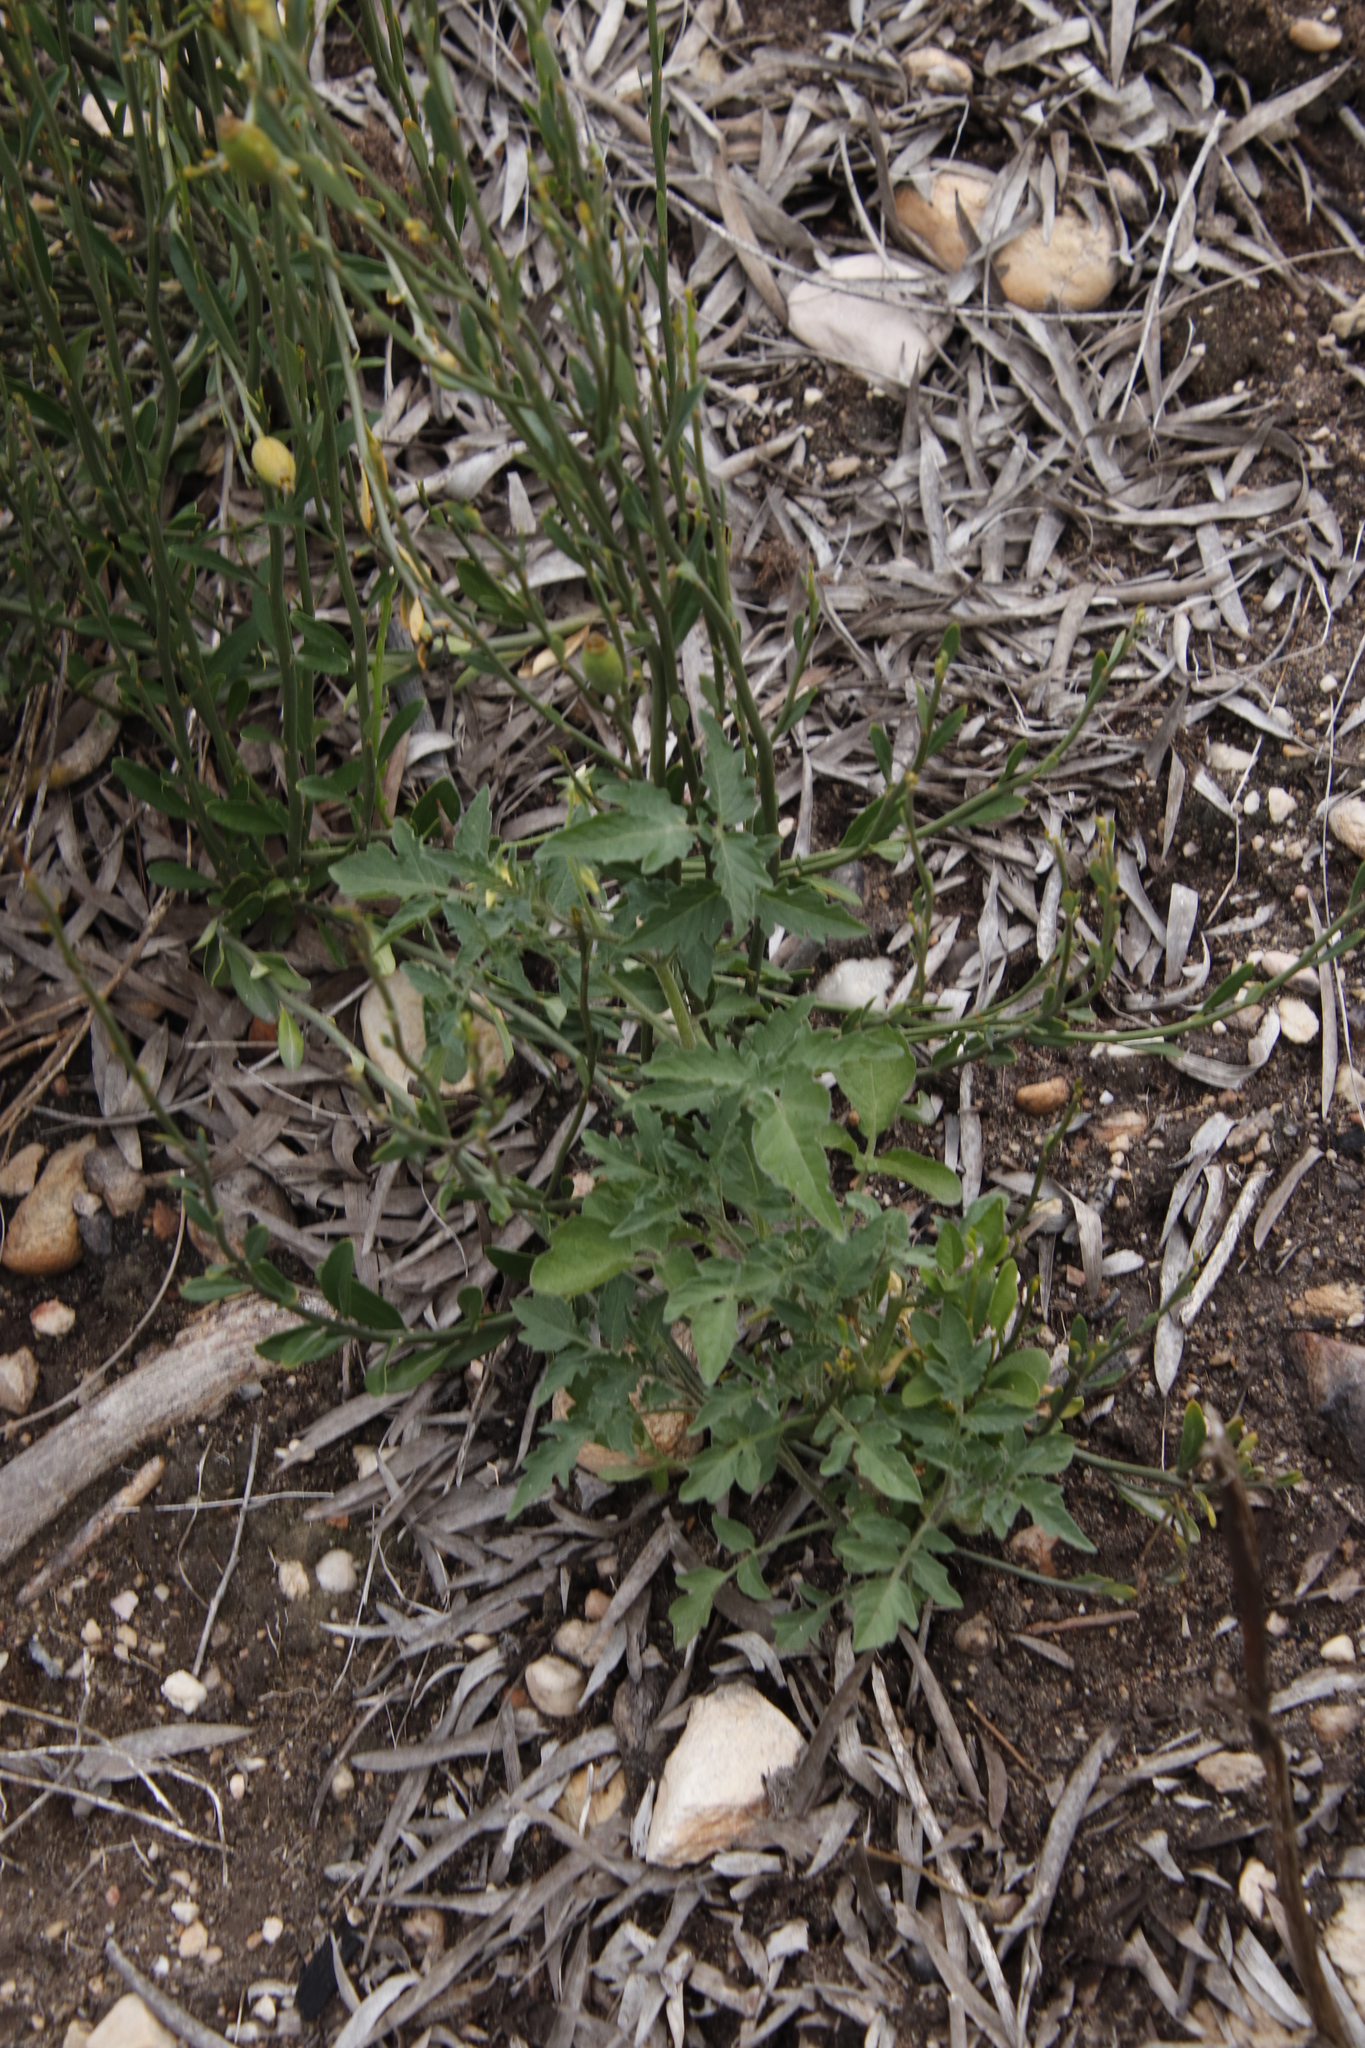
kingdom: Plantae
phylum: Tracheophyta
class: Magnoliopsida
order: Solanales
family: Solanaceae
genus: Solanum
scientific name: Solanum lycopersicum
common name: Garden tomato
